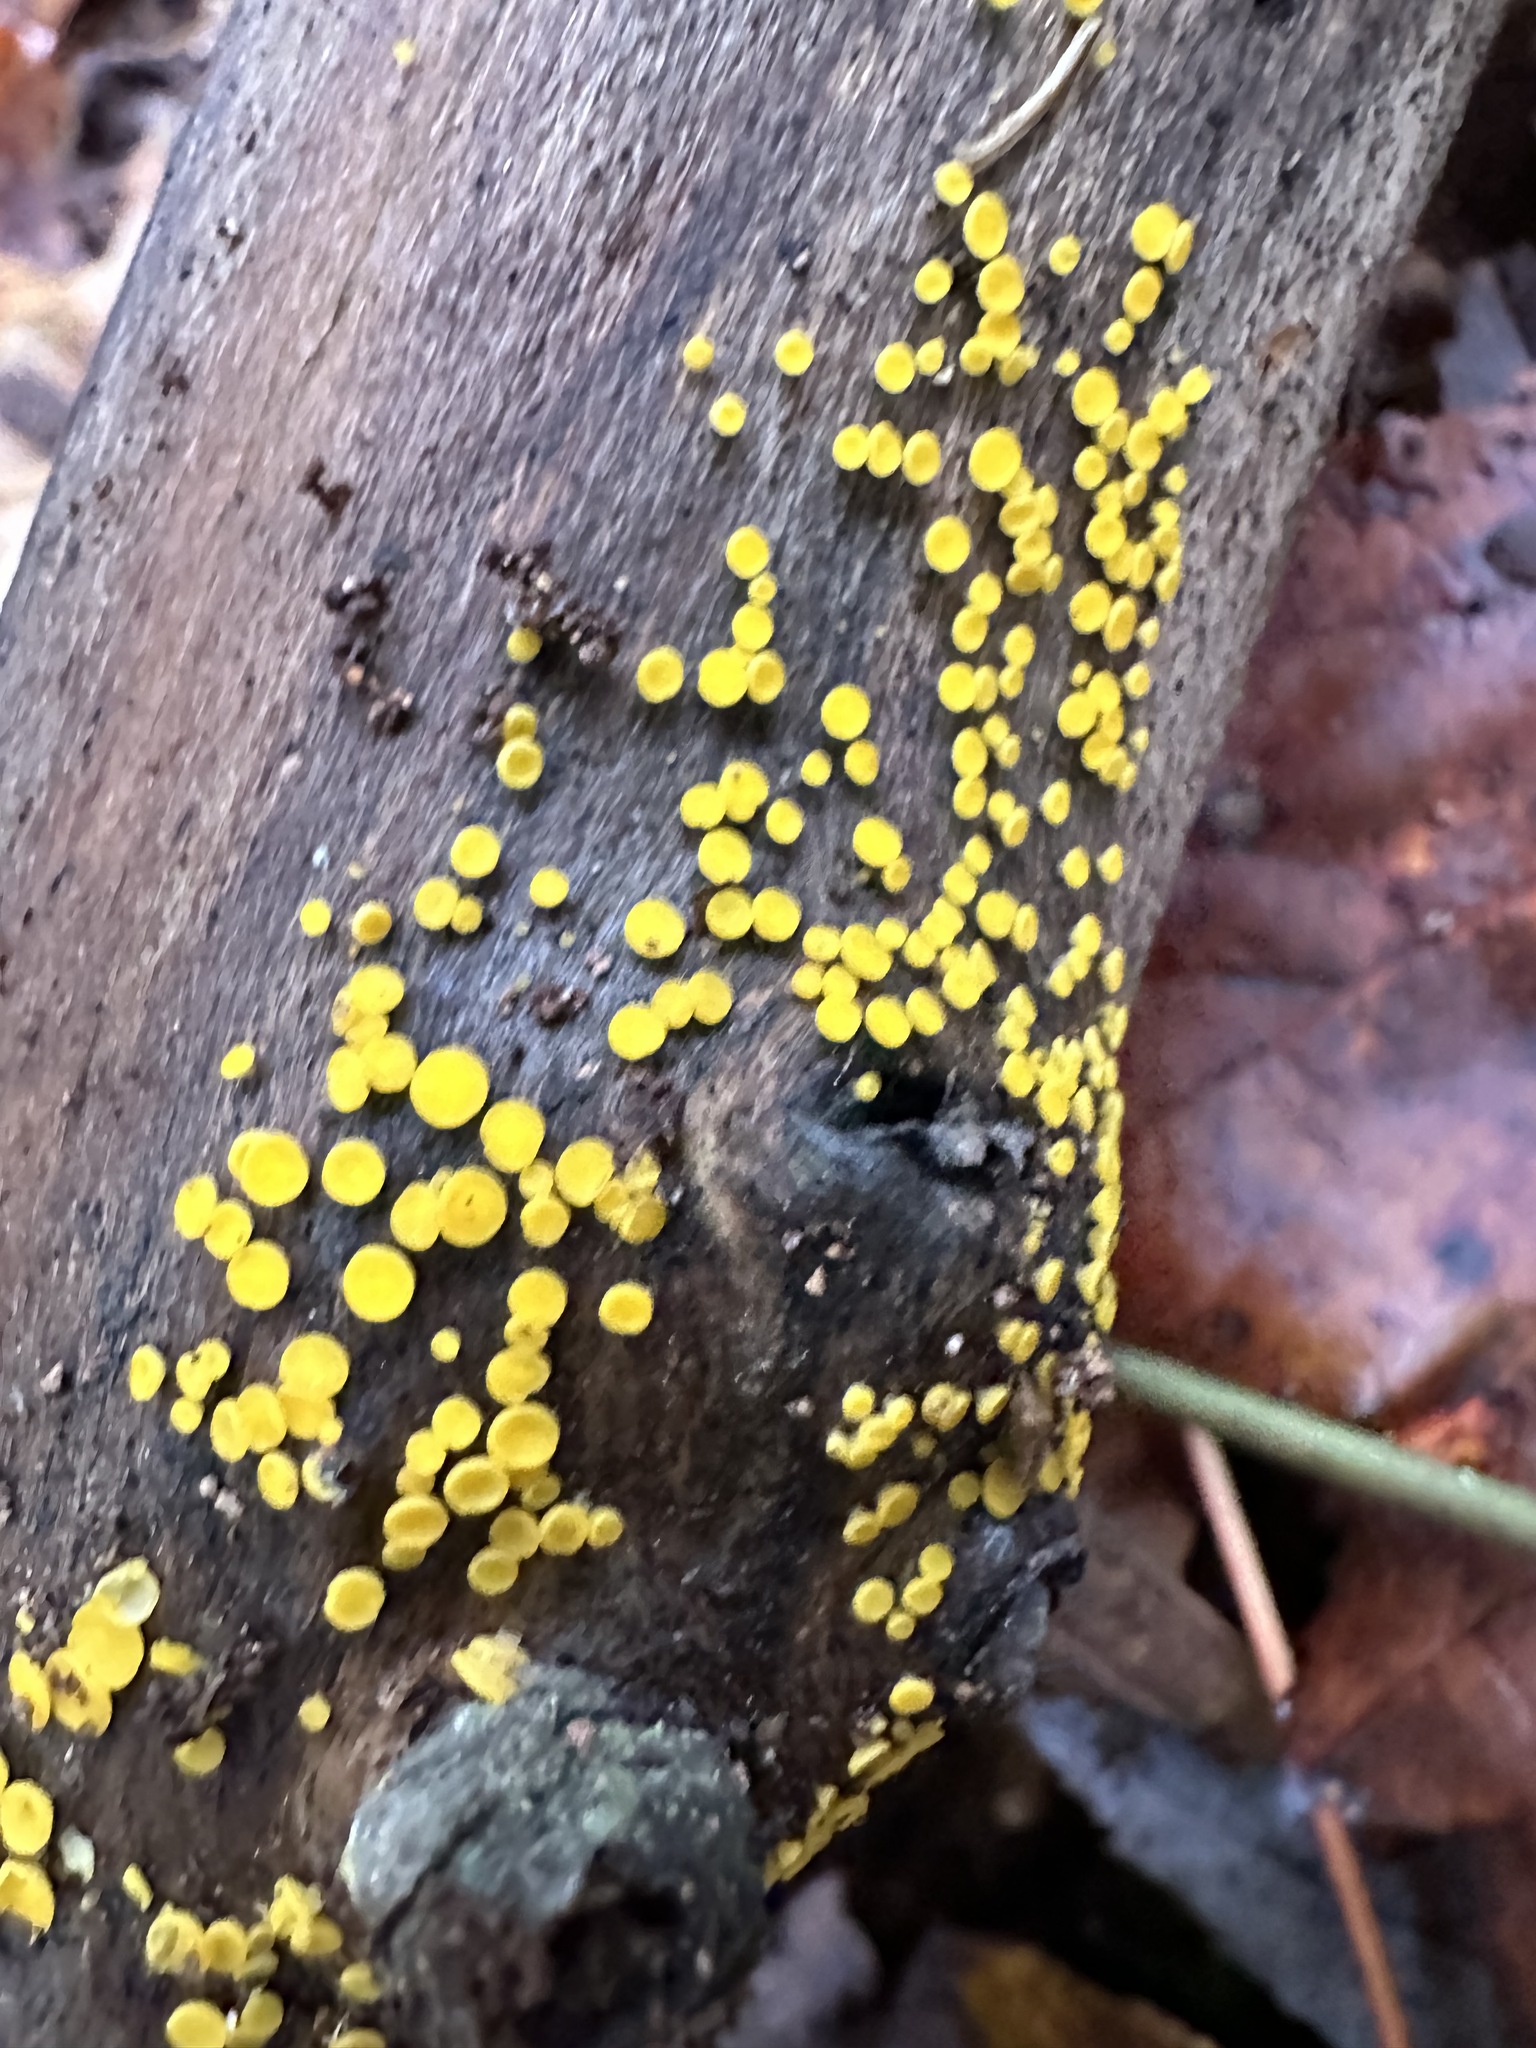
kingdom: Fungi
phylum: Ascomycota
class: Leotiomycetes
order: Helotiales
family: Pezizellaceae
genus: Calycina
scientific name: Calycina citrina
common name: Yellow fairy cups
